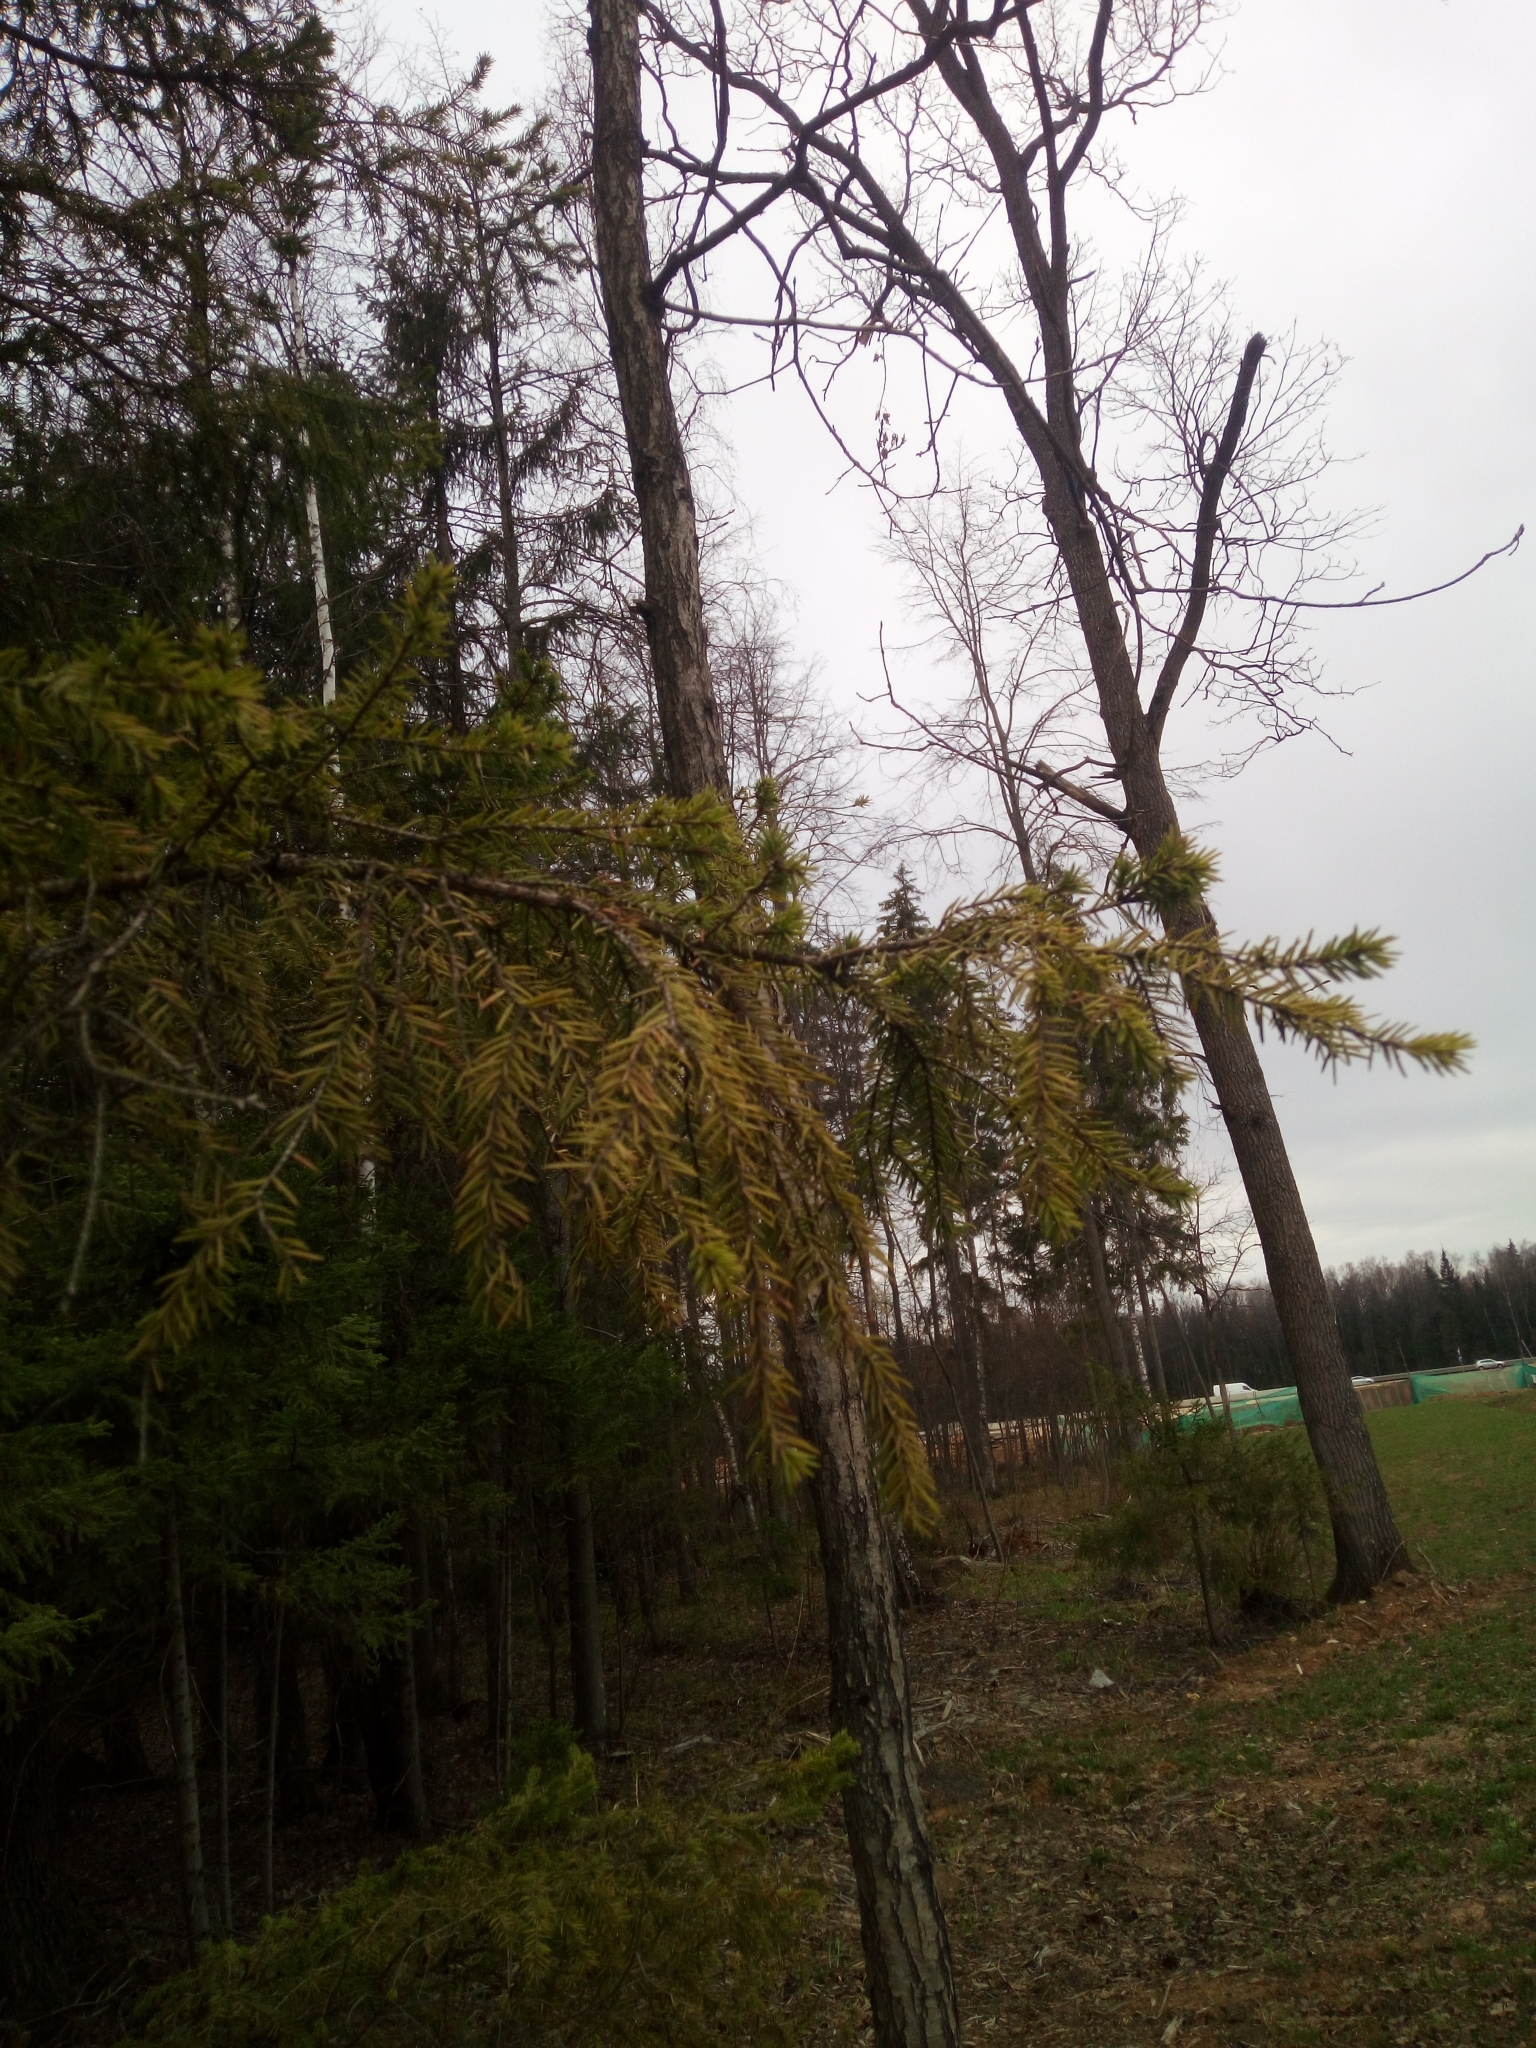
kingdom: Plantae
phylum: Tracheophyta
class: Pinopsida
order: Pinales
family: Pinaceae
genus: Picea
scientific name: Picea abies
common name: Norway spruce
